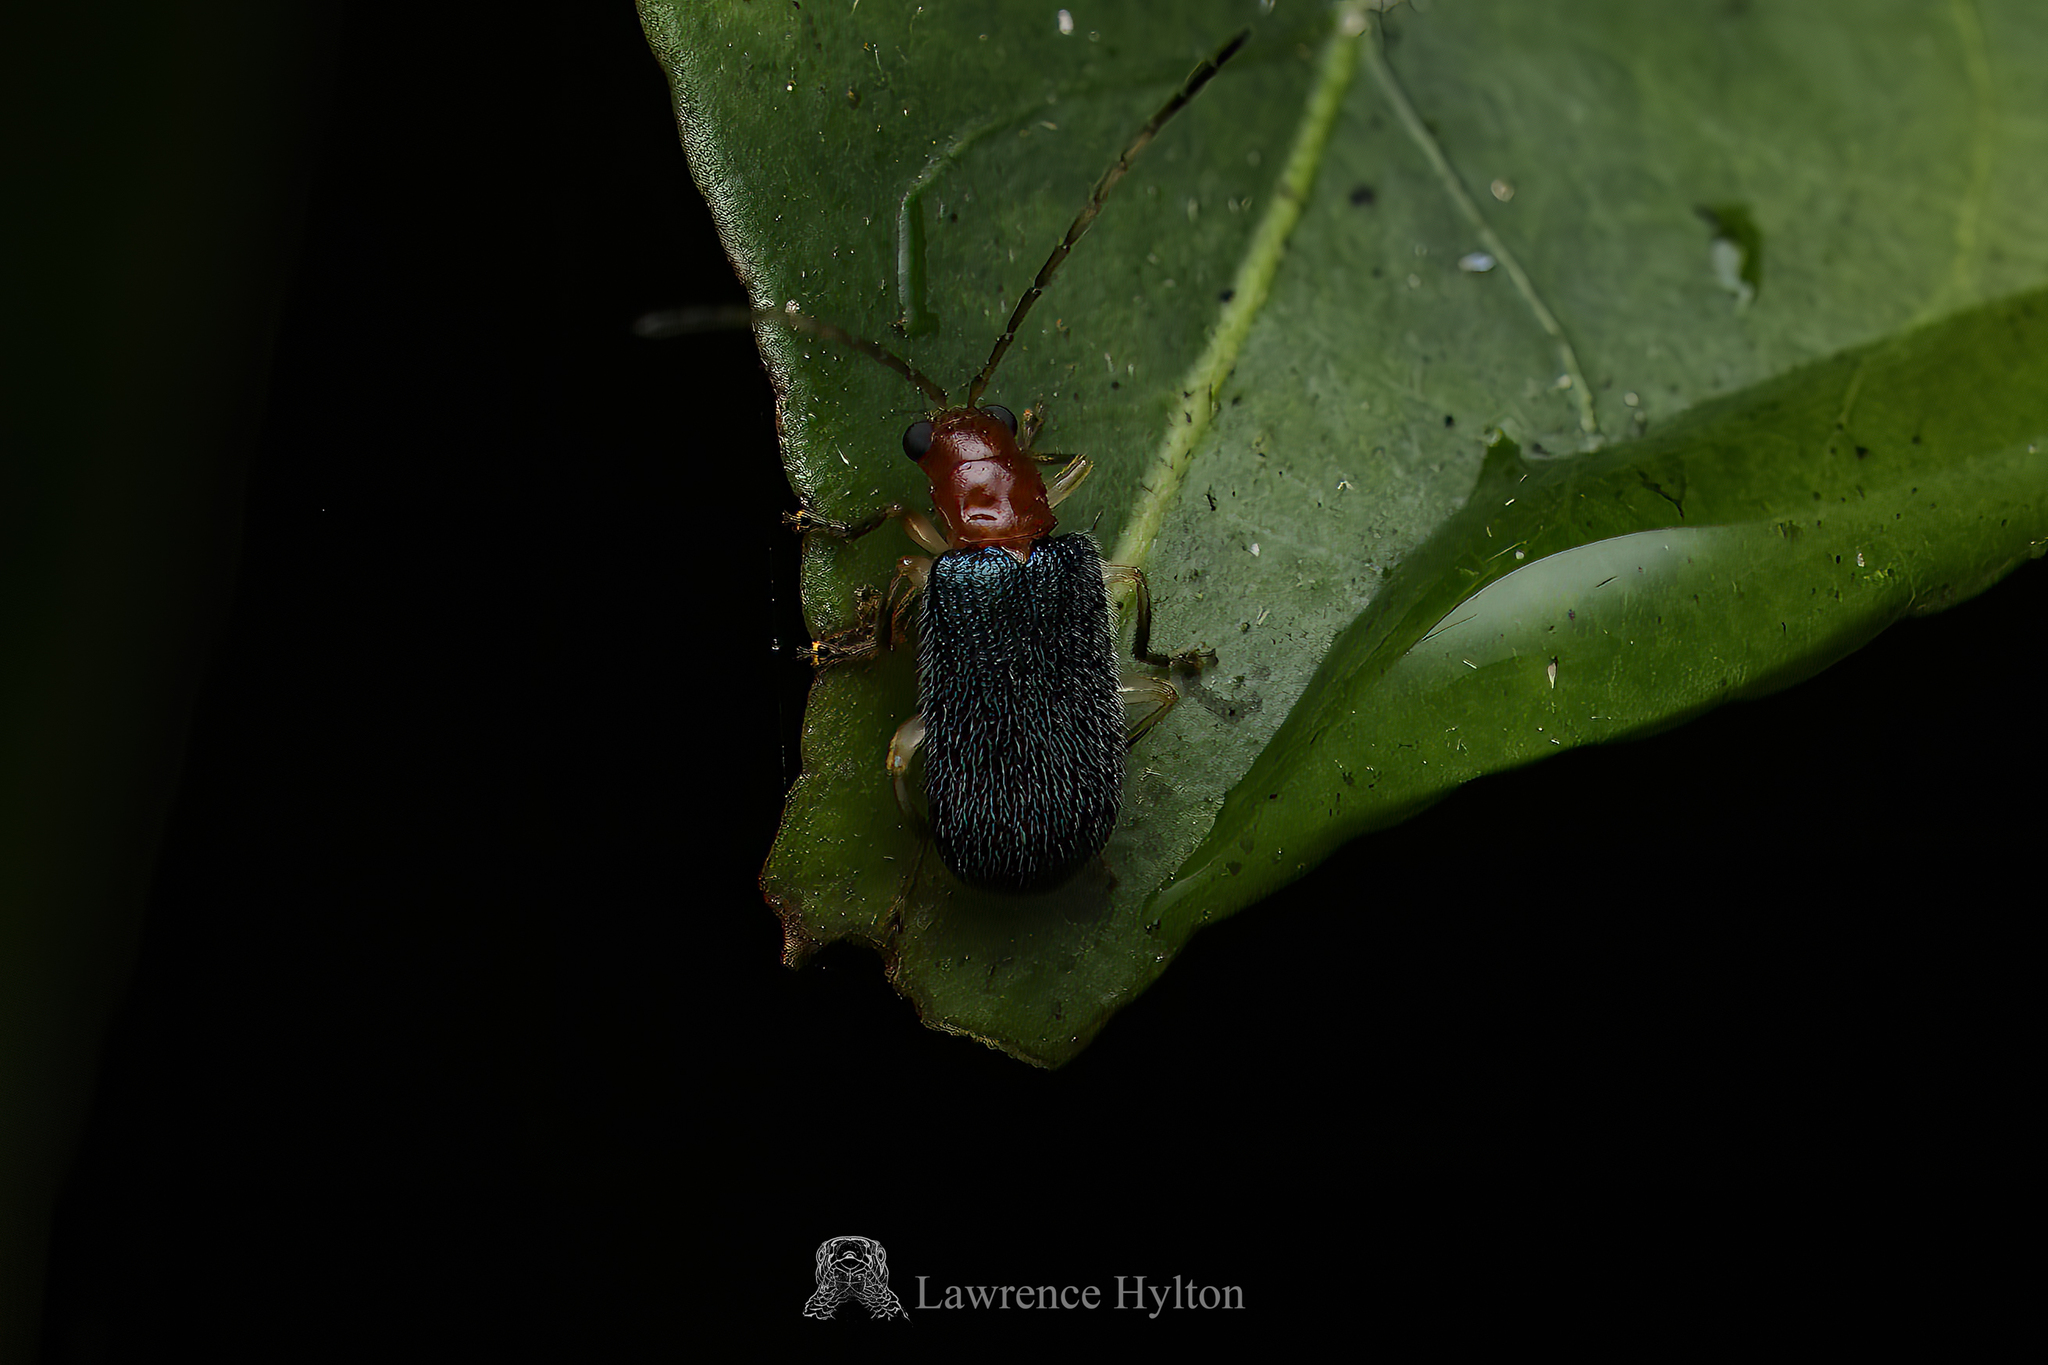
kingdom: Animalia
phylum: Arthropoda
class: Insecta
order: Coleoptera
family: Chrysomelidae
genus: Trichobalya
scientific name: Trichobalya
